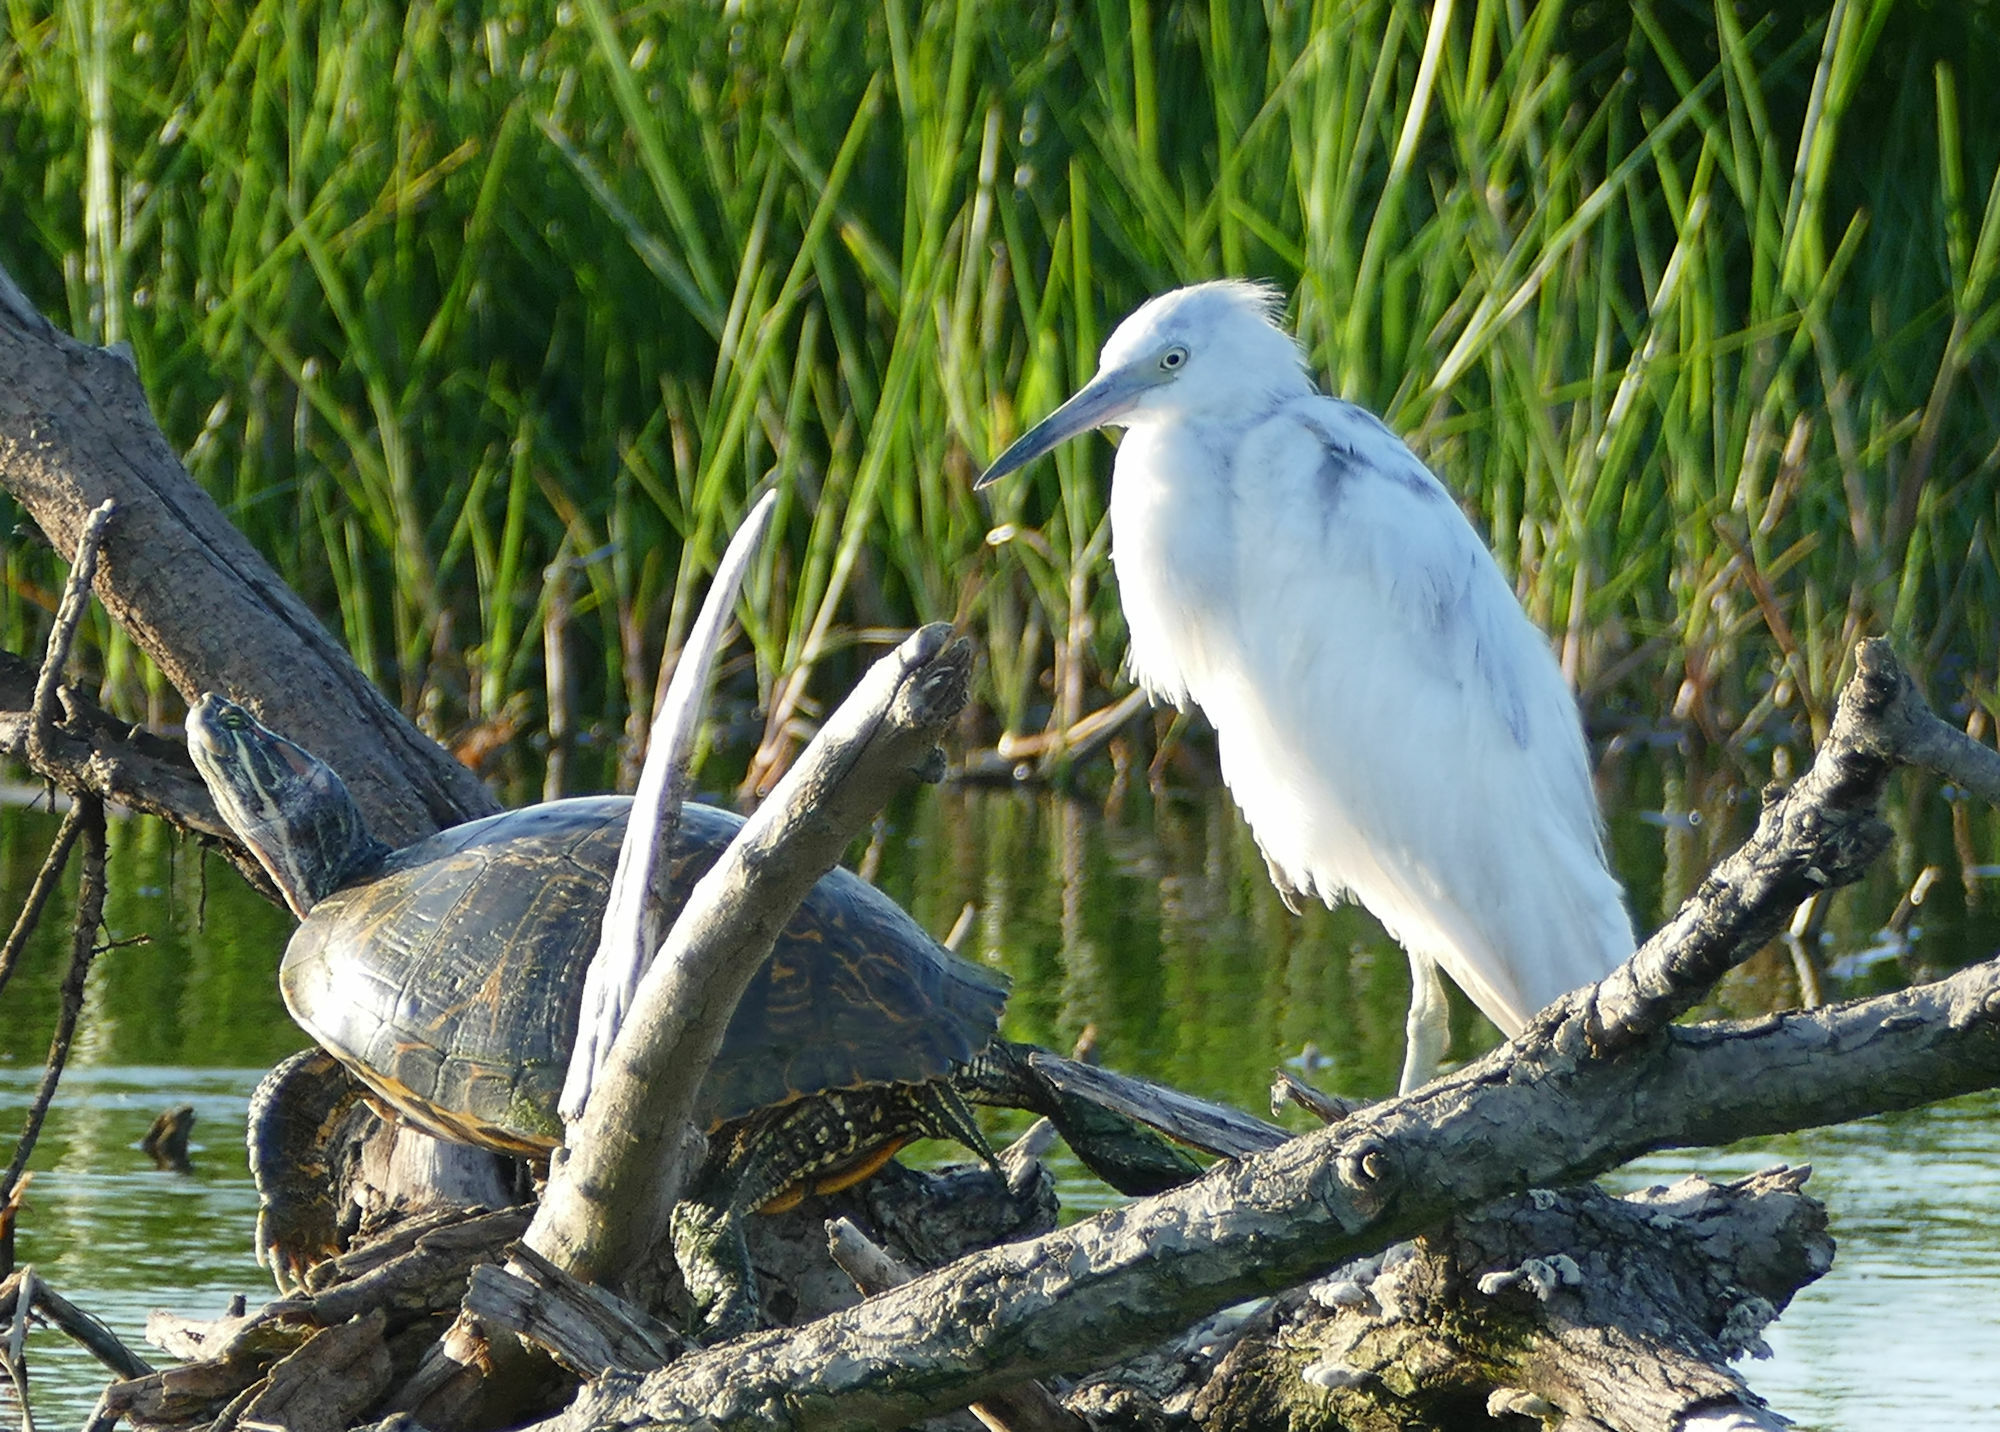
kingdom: Animalia
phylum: Chordata
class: Aves
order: Pelecaniformes
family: Ardeidae
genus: Egretta
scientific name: Egretta caerulea
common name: Little blue heron
